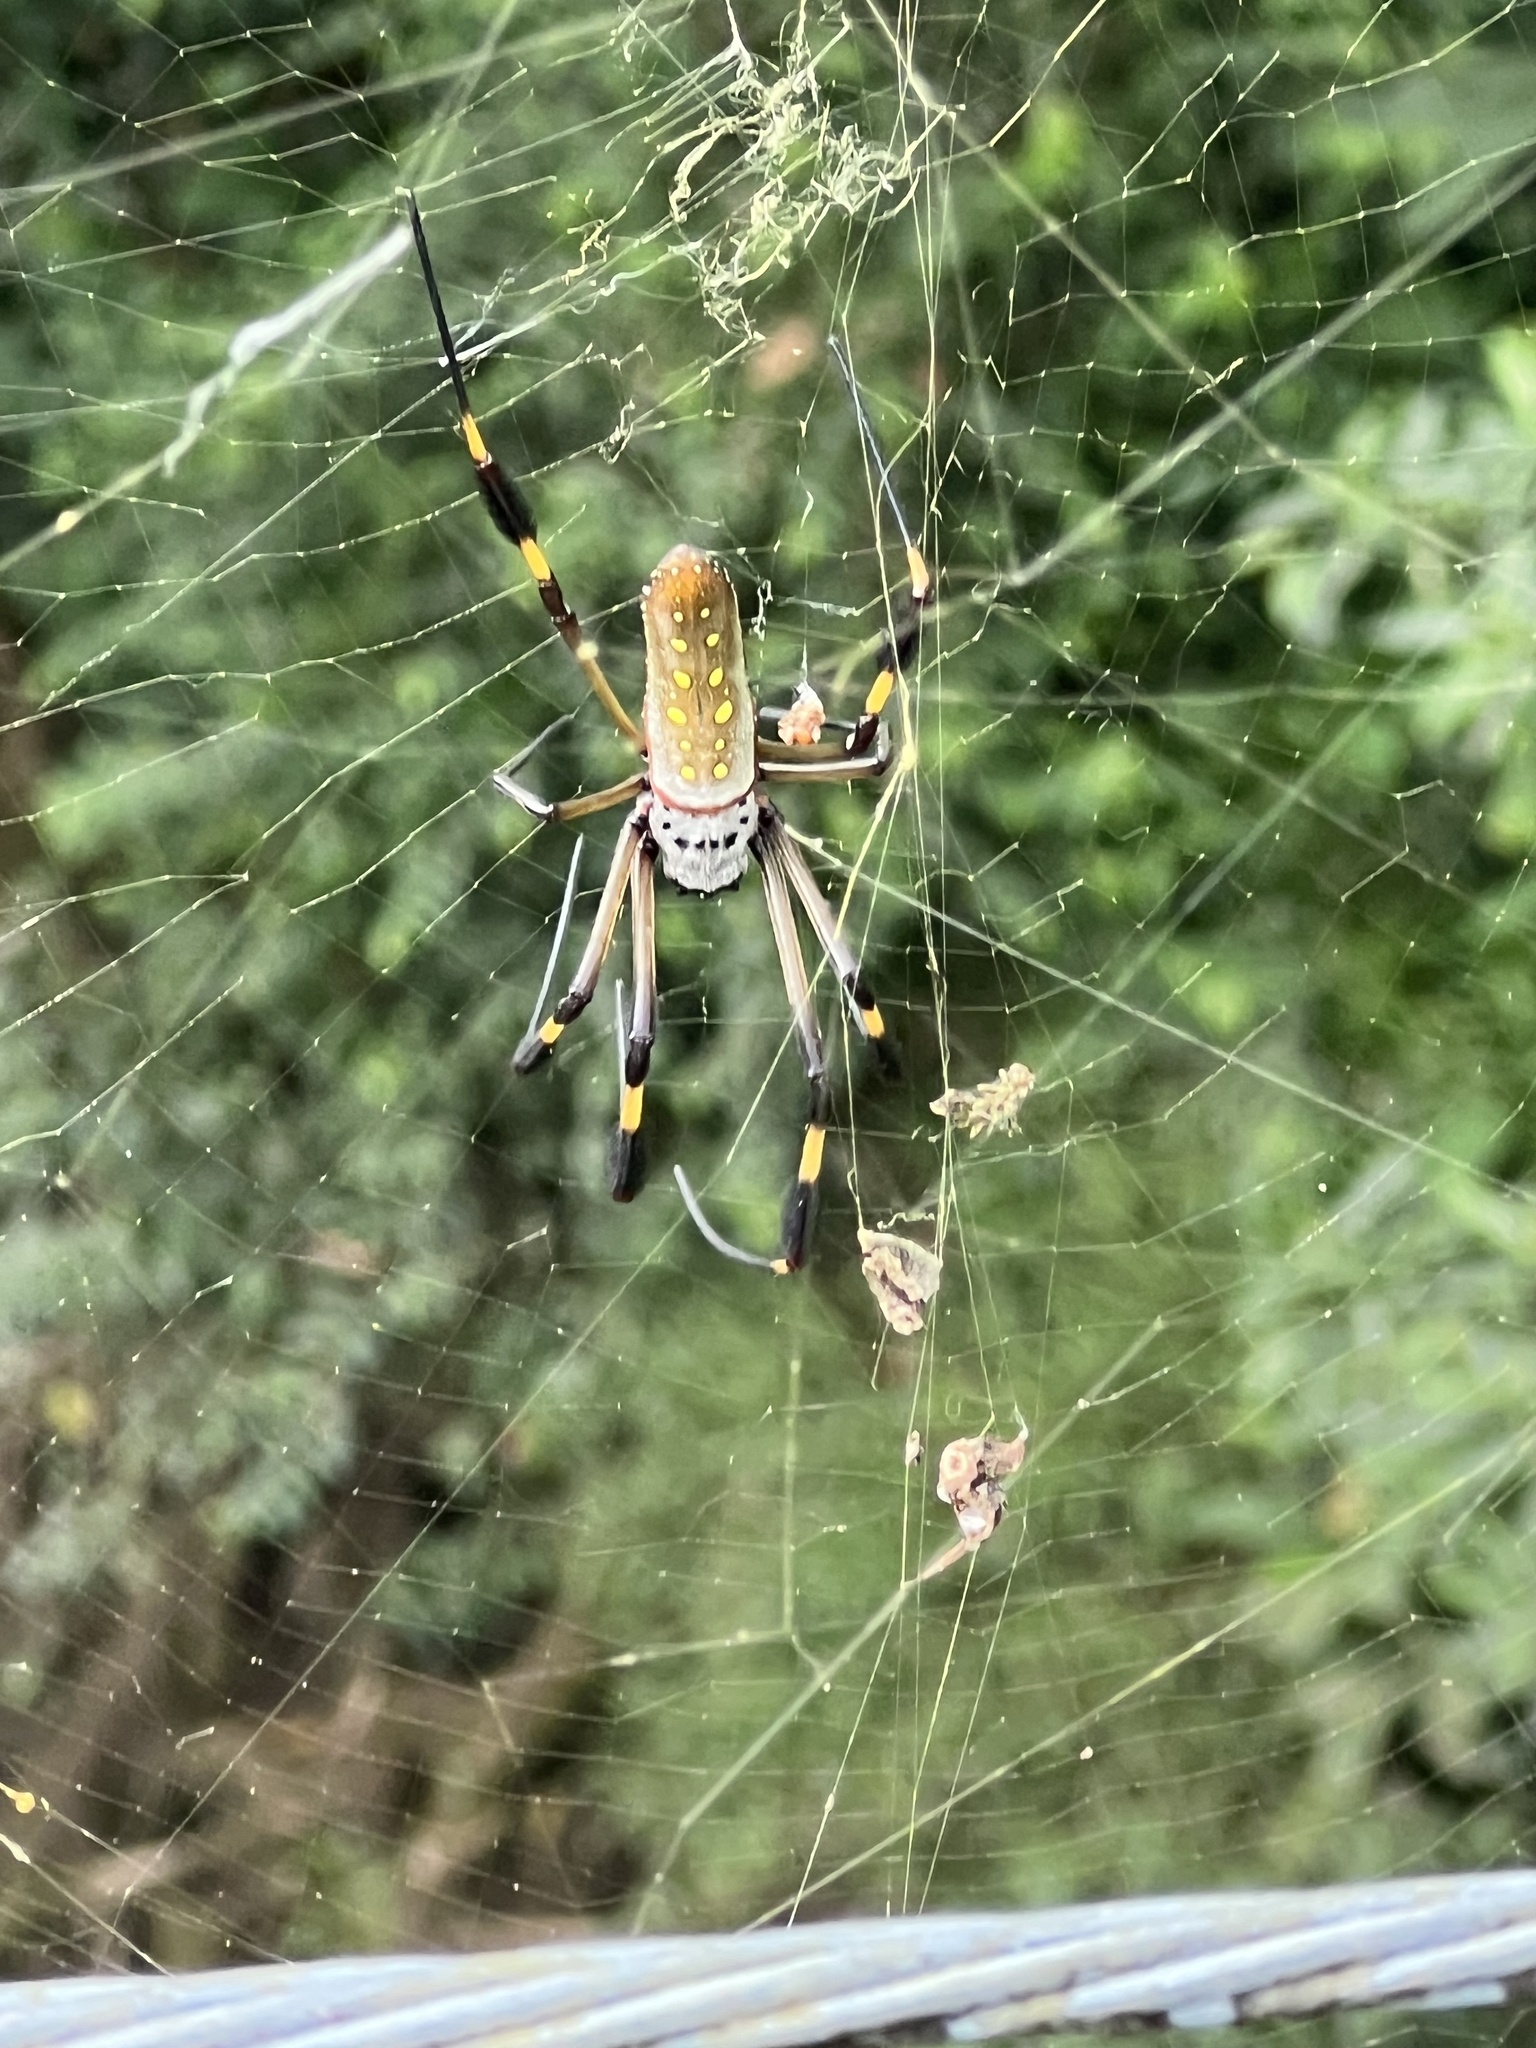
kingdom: Animalia
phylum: Arthropoda
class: Arachnida
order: Araneae
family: Araneidae
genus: Trichonephila
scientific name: Trichonephila clavipes
